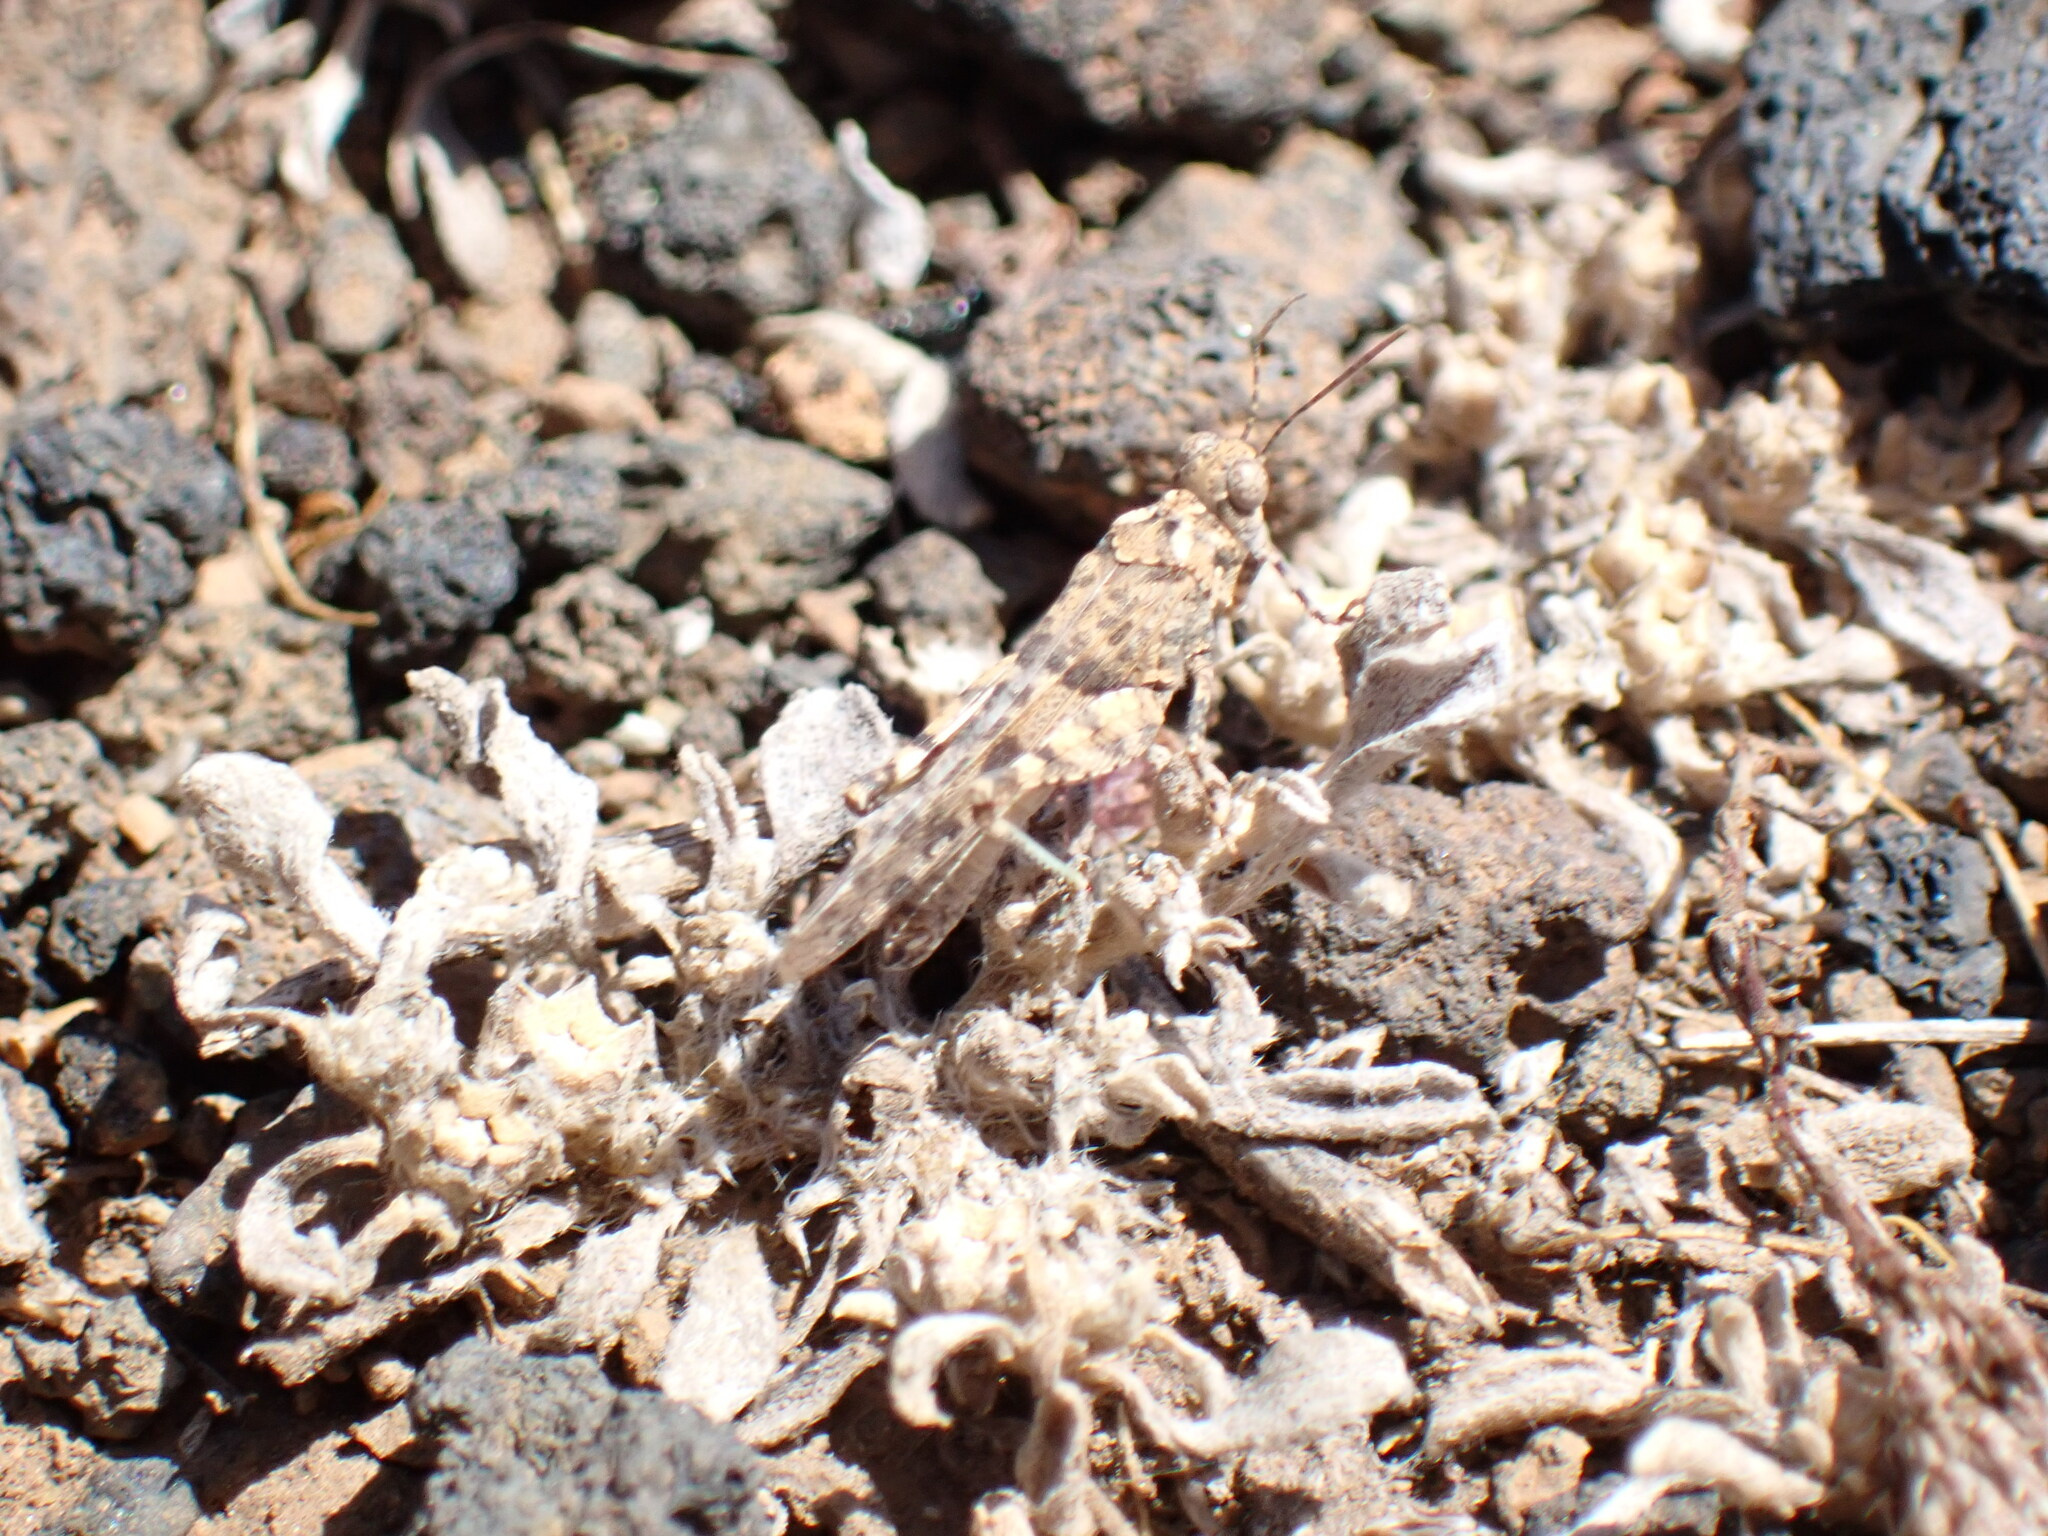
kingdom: Animalia
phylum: Arthropoda
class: Insecta
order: Orthoptera
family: Acrididae
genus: Sphingonotus
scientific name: Sphingonotus picteti
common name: Tenerife sand grasshopper
